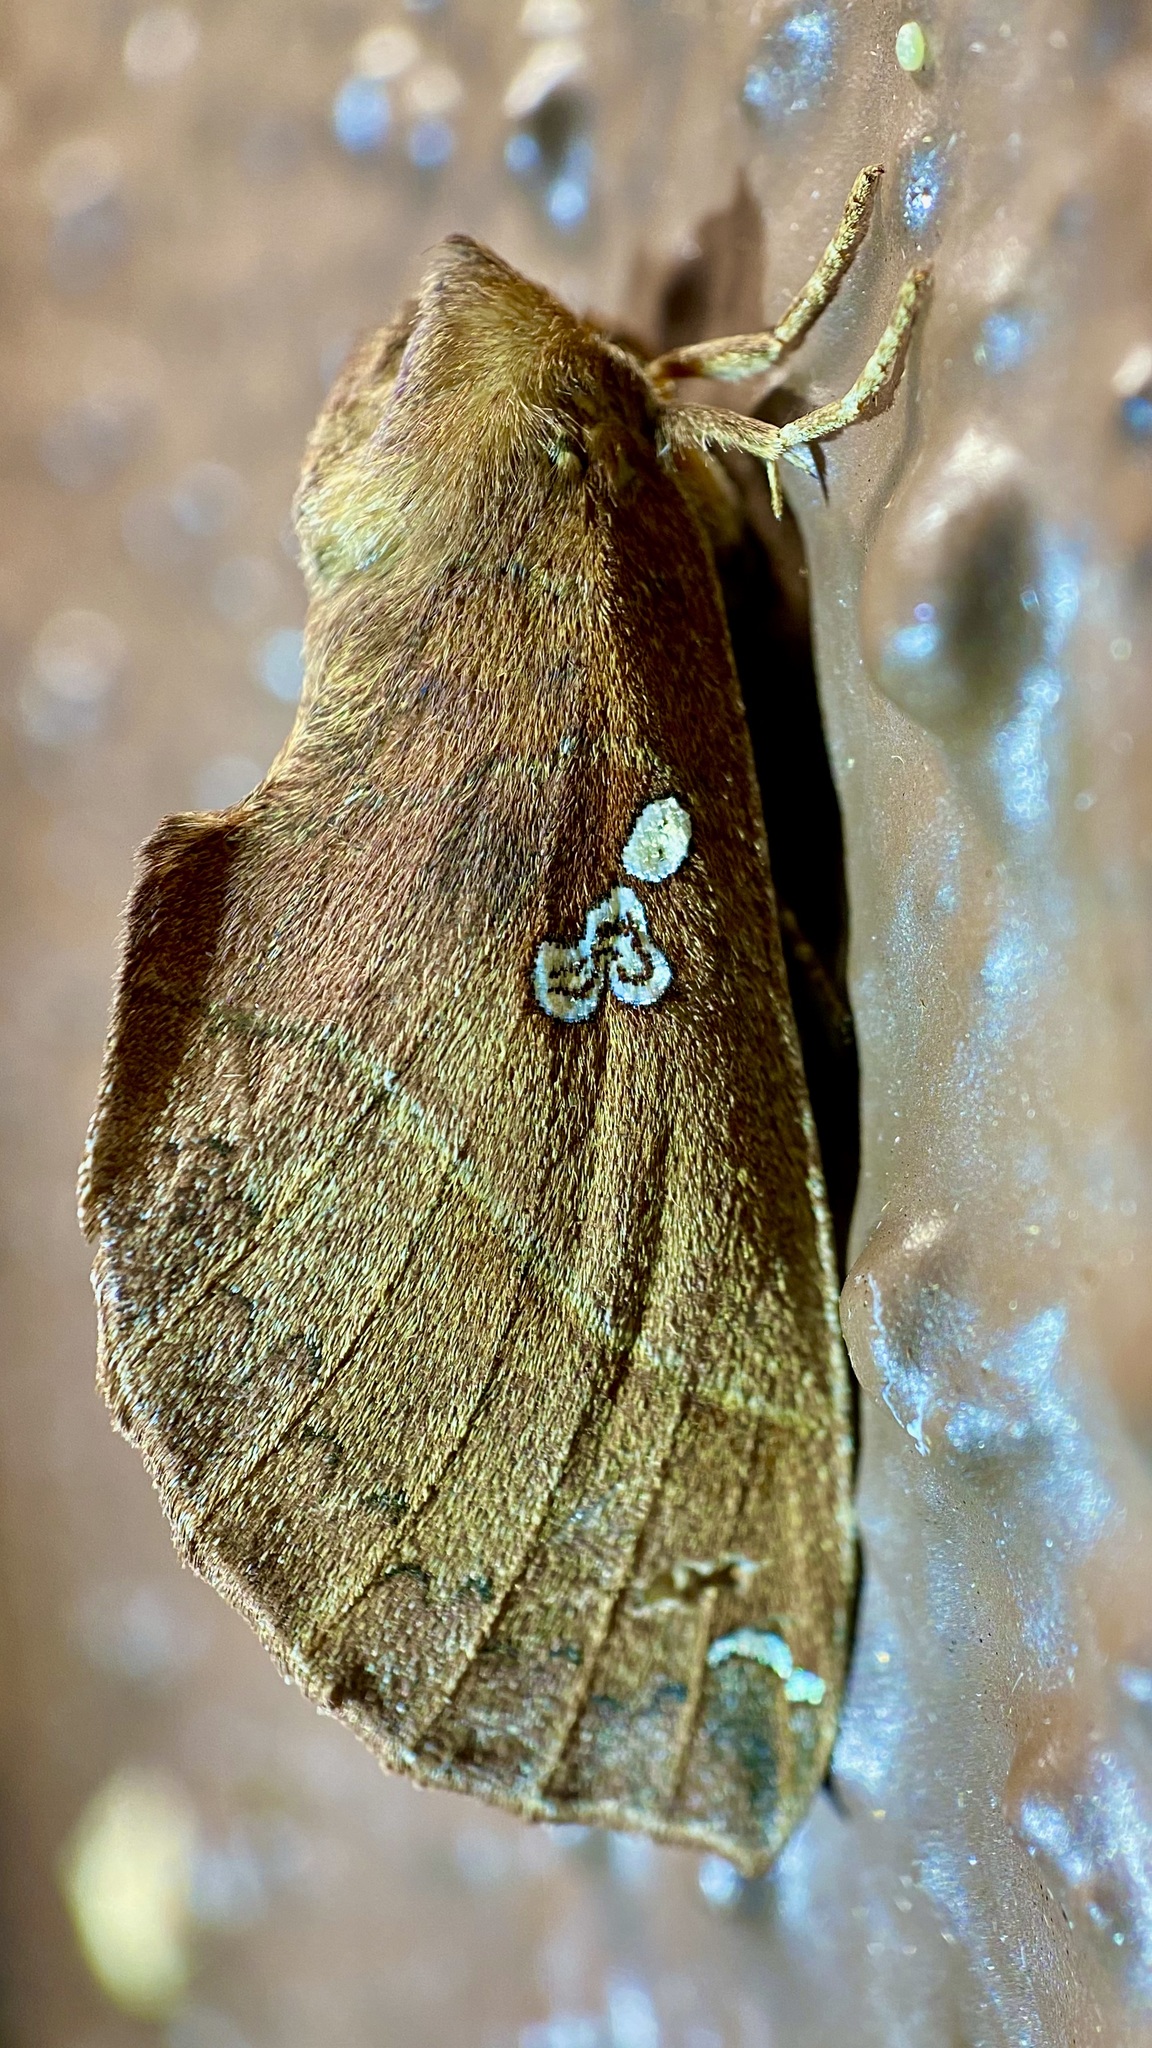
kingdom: Animalia
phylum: Arthropoda
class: Insecta
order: Lepidoptera
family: Notodontidae
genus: Pseudhapigia
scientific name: Pseudhapigia brunnea
